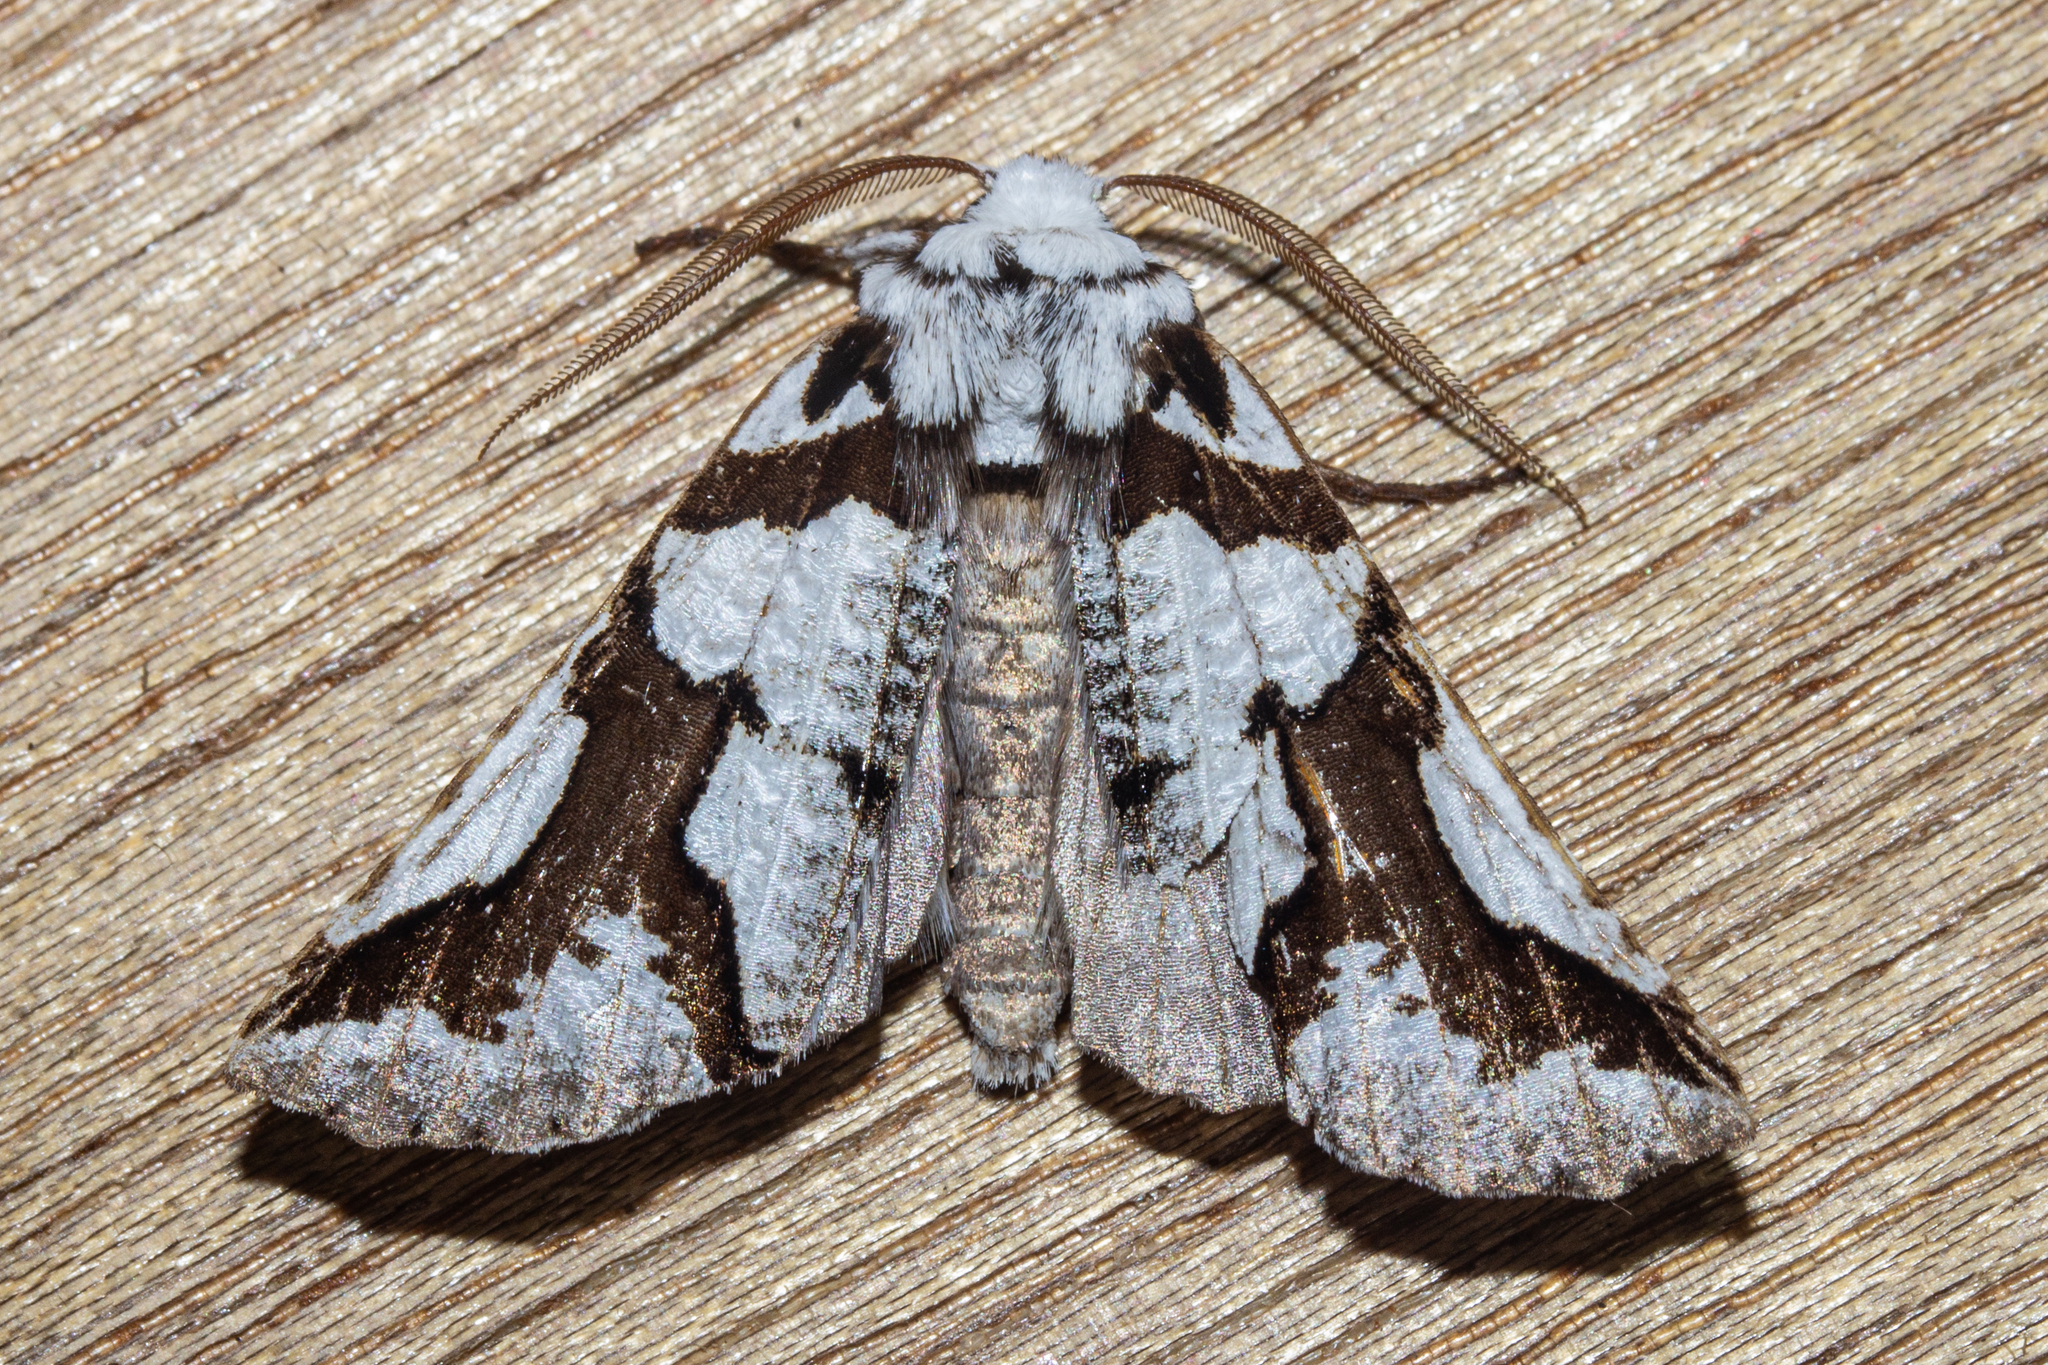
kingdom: Animalia
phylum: Arthropoda
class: Insecta
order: Lepidoptera
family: Geometridae
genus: Declana
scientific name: Declana
